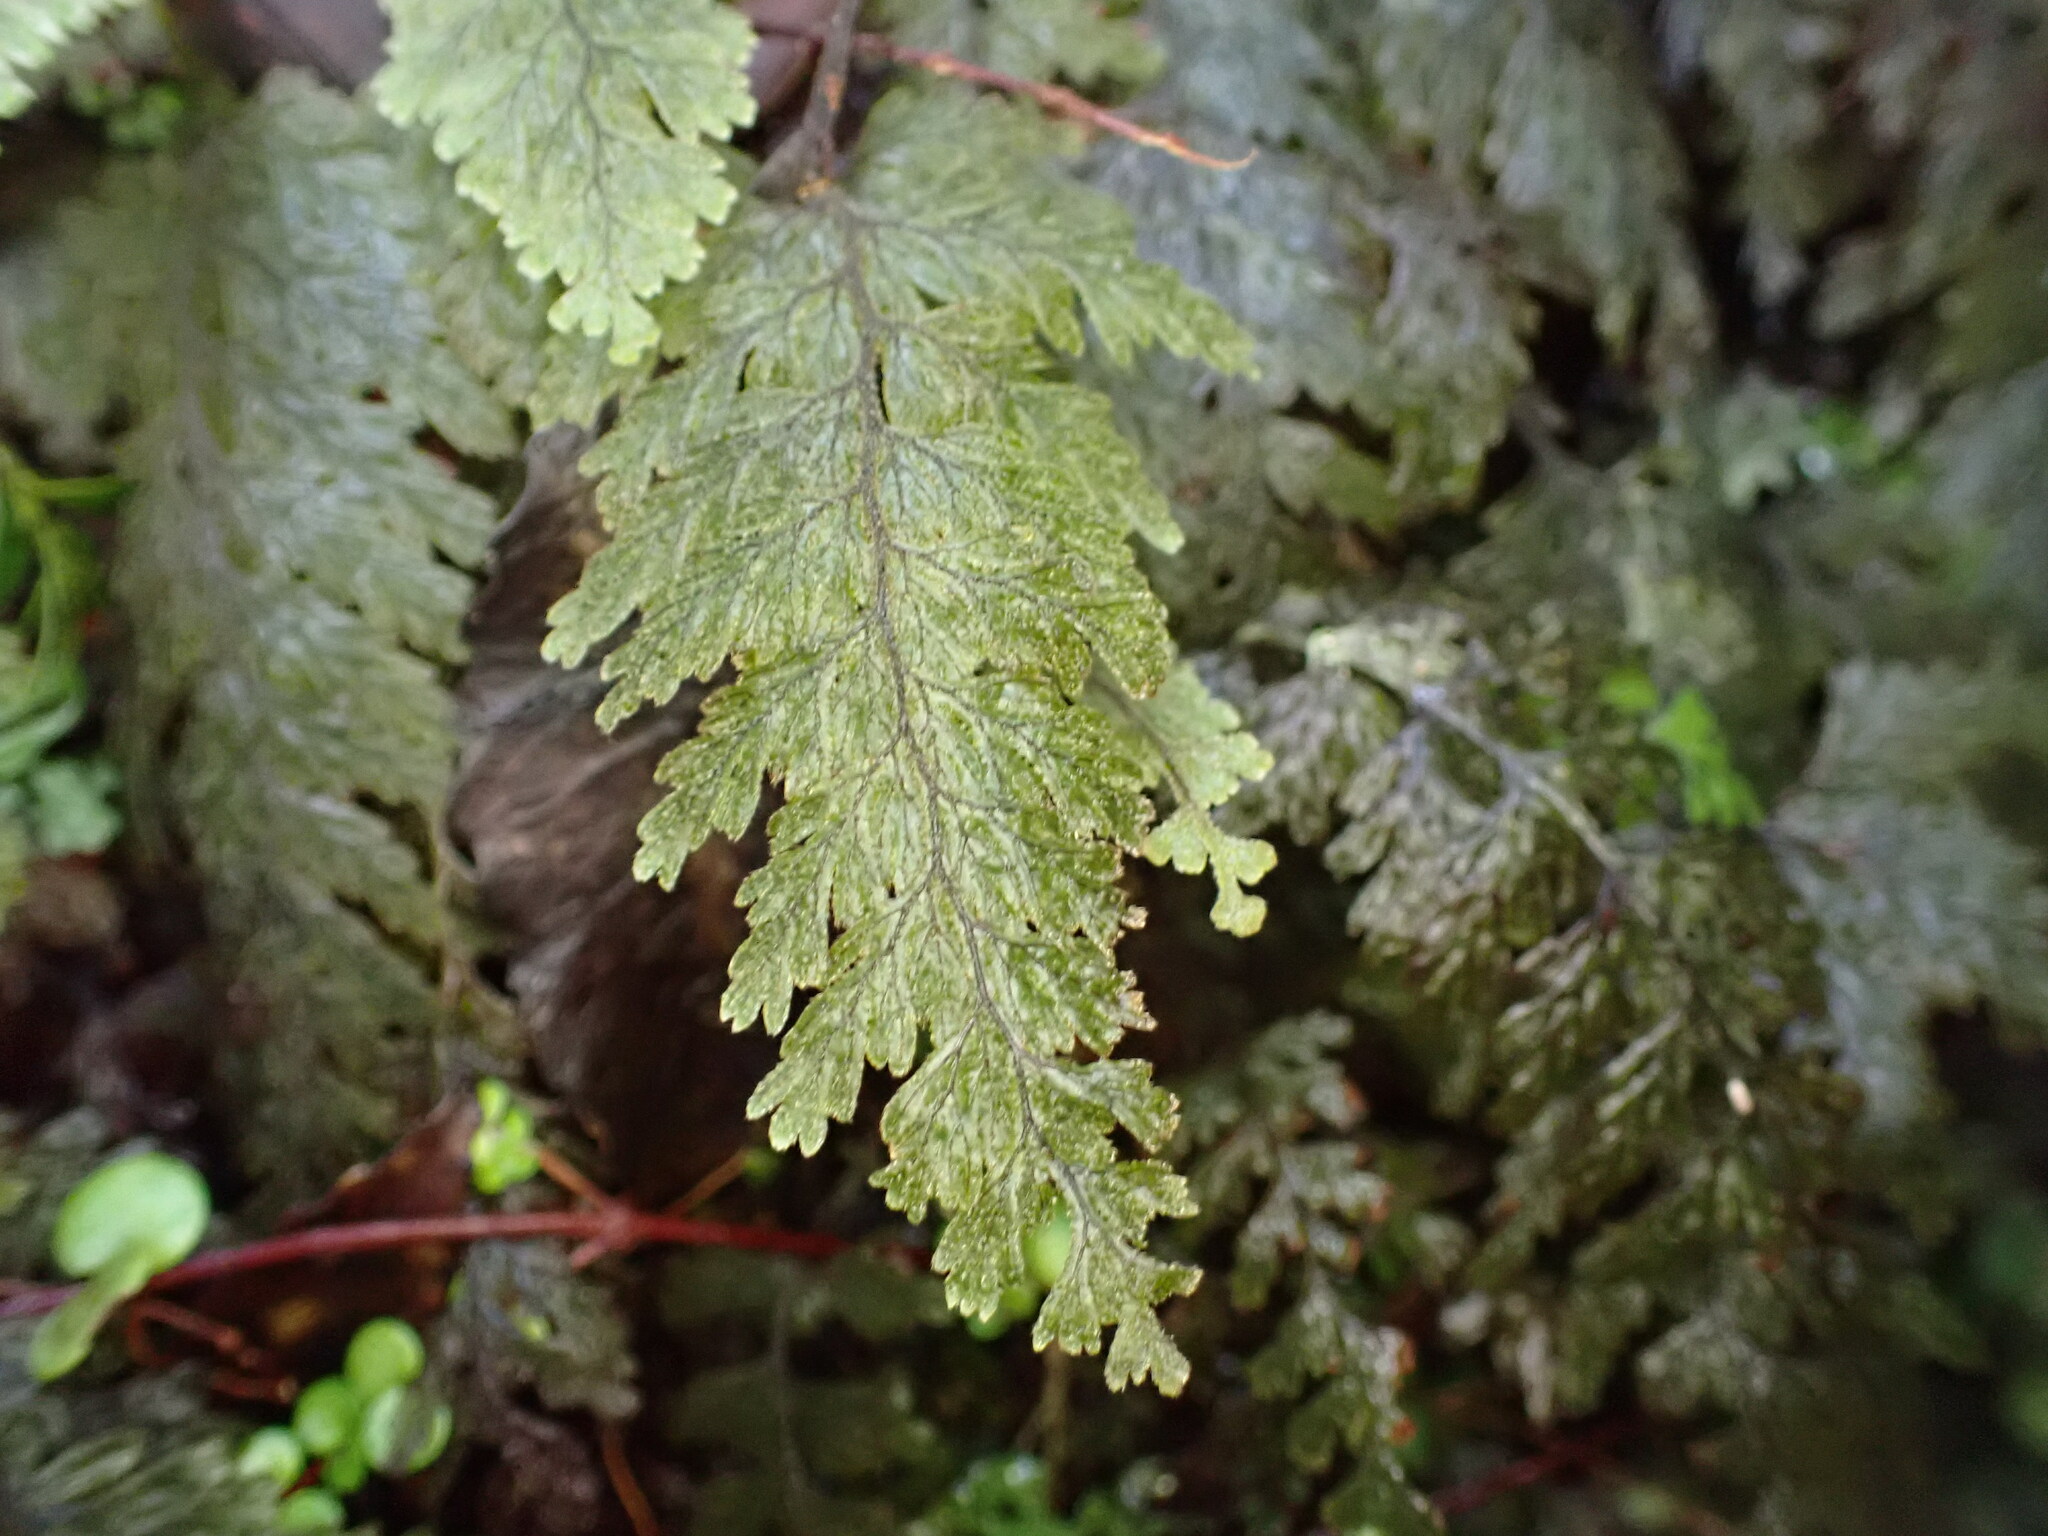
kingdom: Plantae
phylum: Tracheophyta
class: Polypodiopsida
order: Hymenophyllales
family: Hymenophyllaceae
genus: Hymenophyllum
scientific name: Hymenophyllum frankliniae
